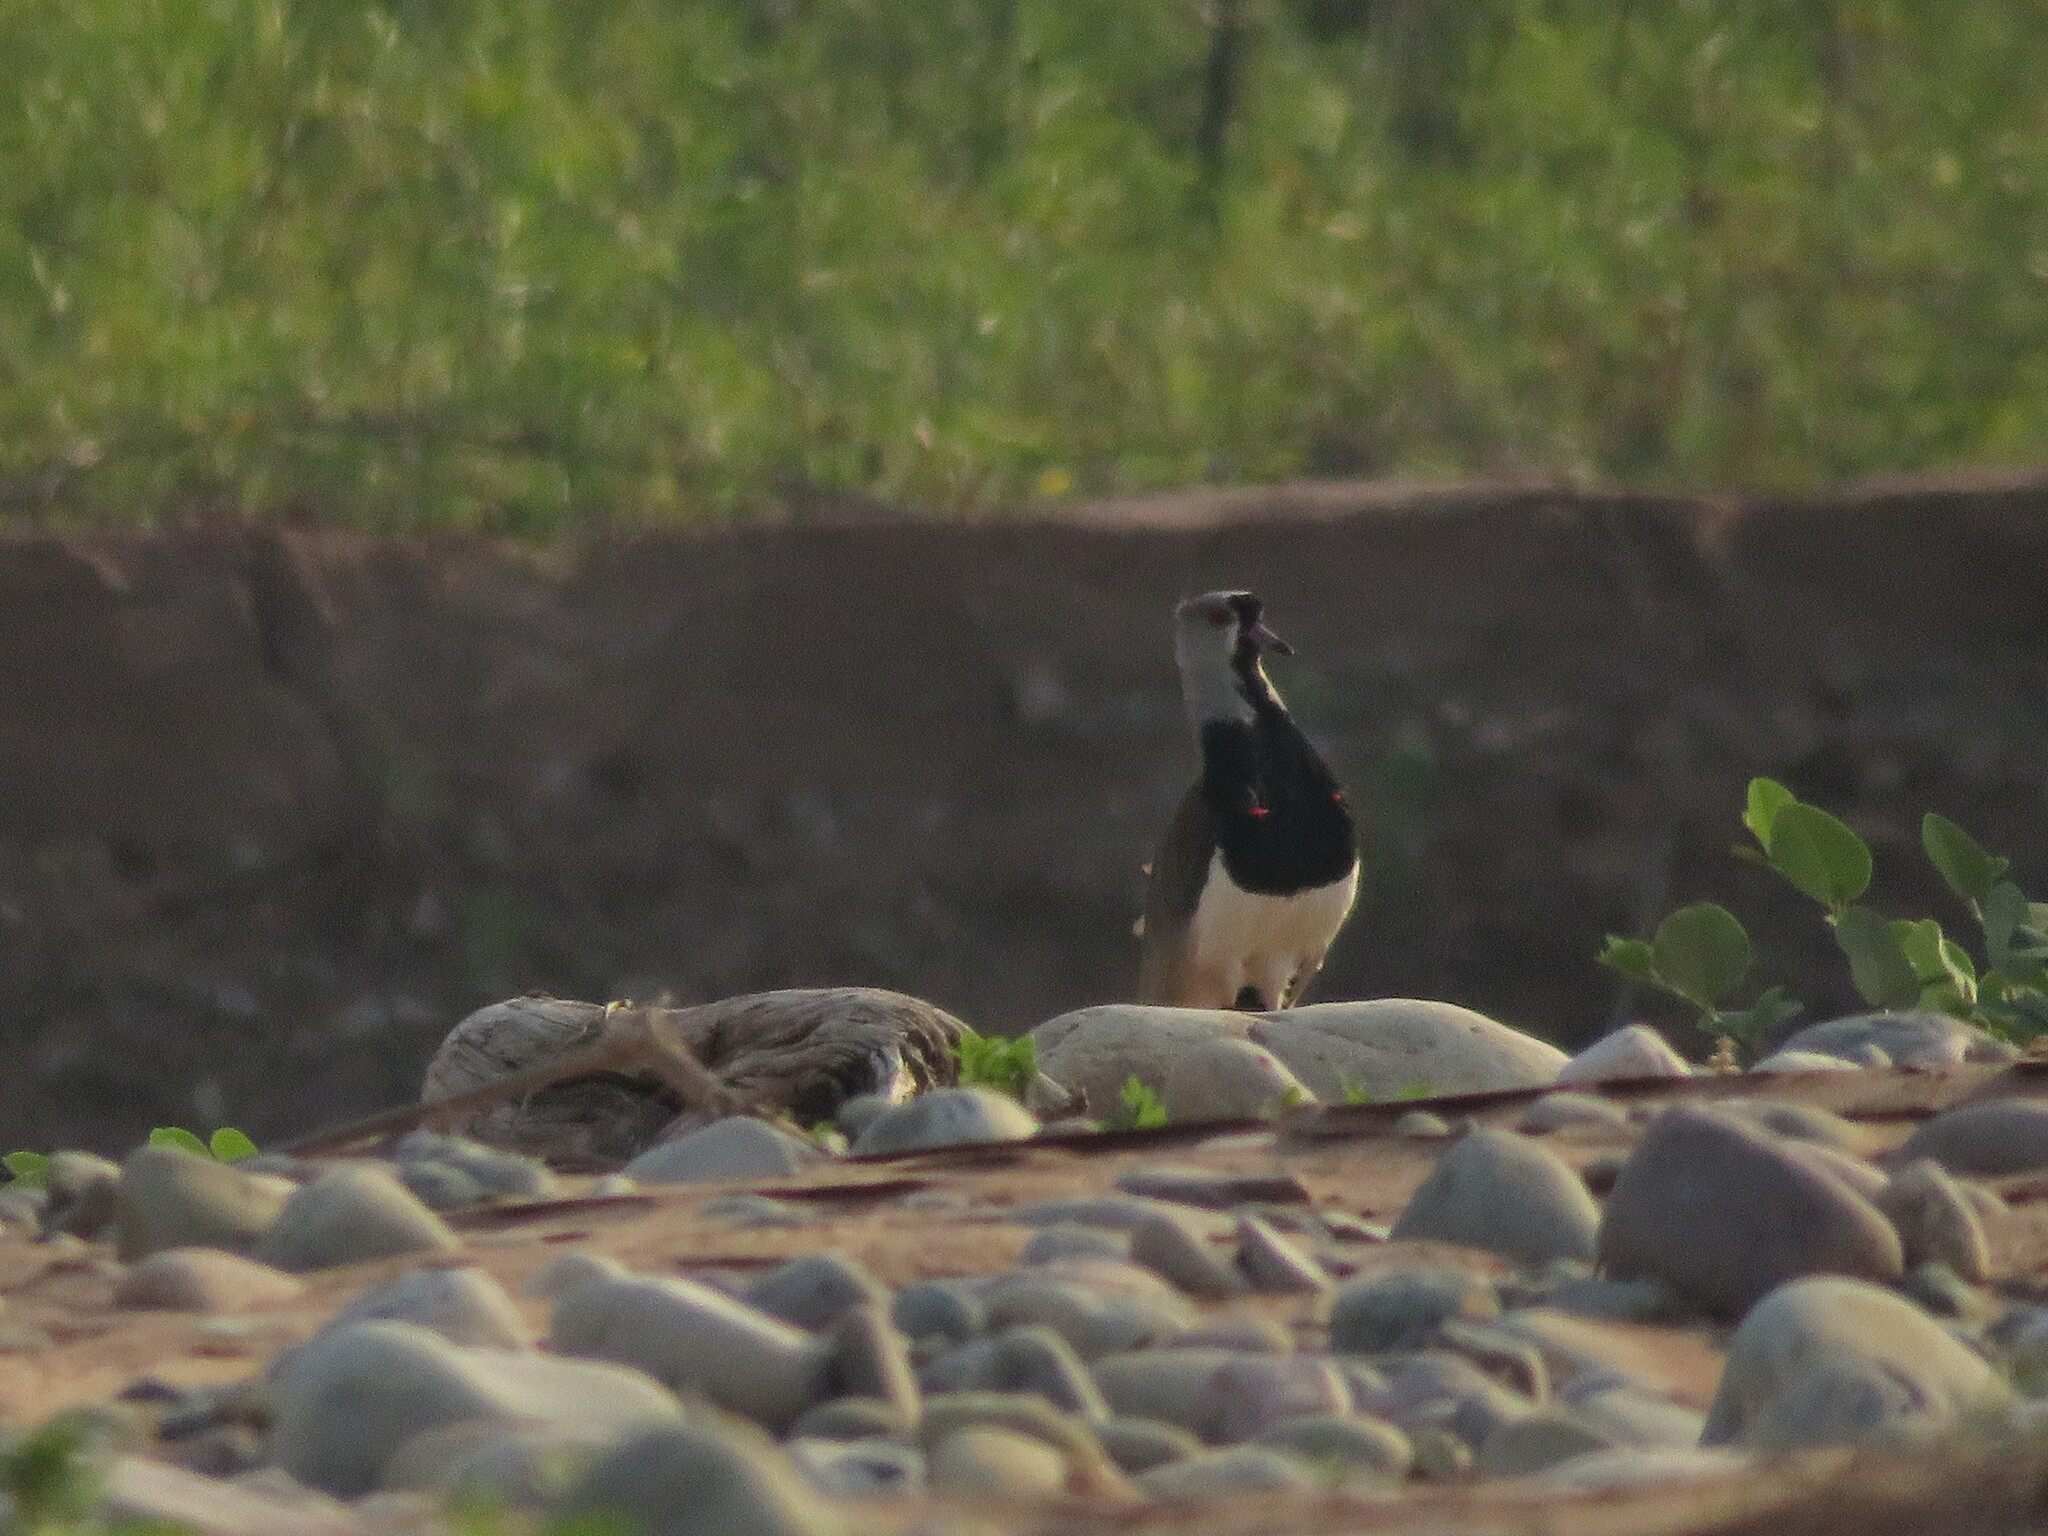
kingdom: Animalia
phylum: Chordata
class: Aves
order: Charadriiformes
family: Charadriidae
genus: Vanellus
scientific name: Vanellus chilensis
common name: Southern lapwing
